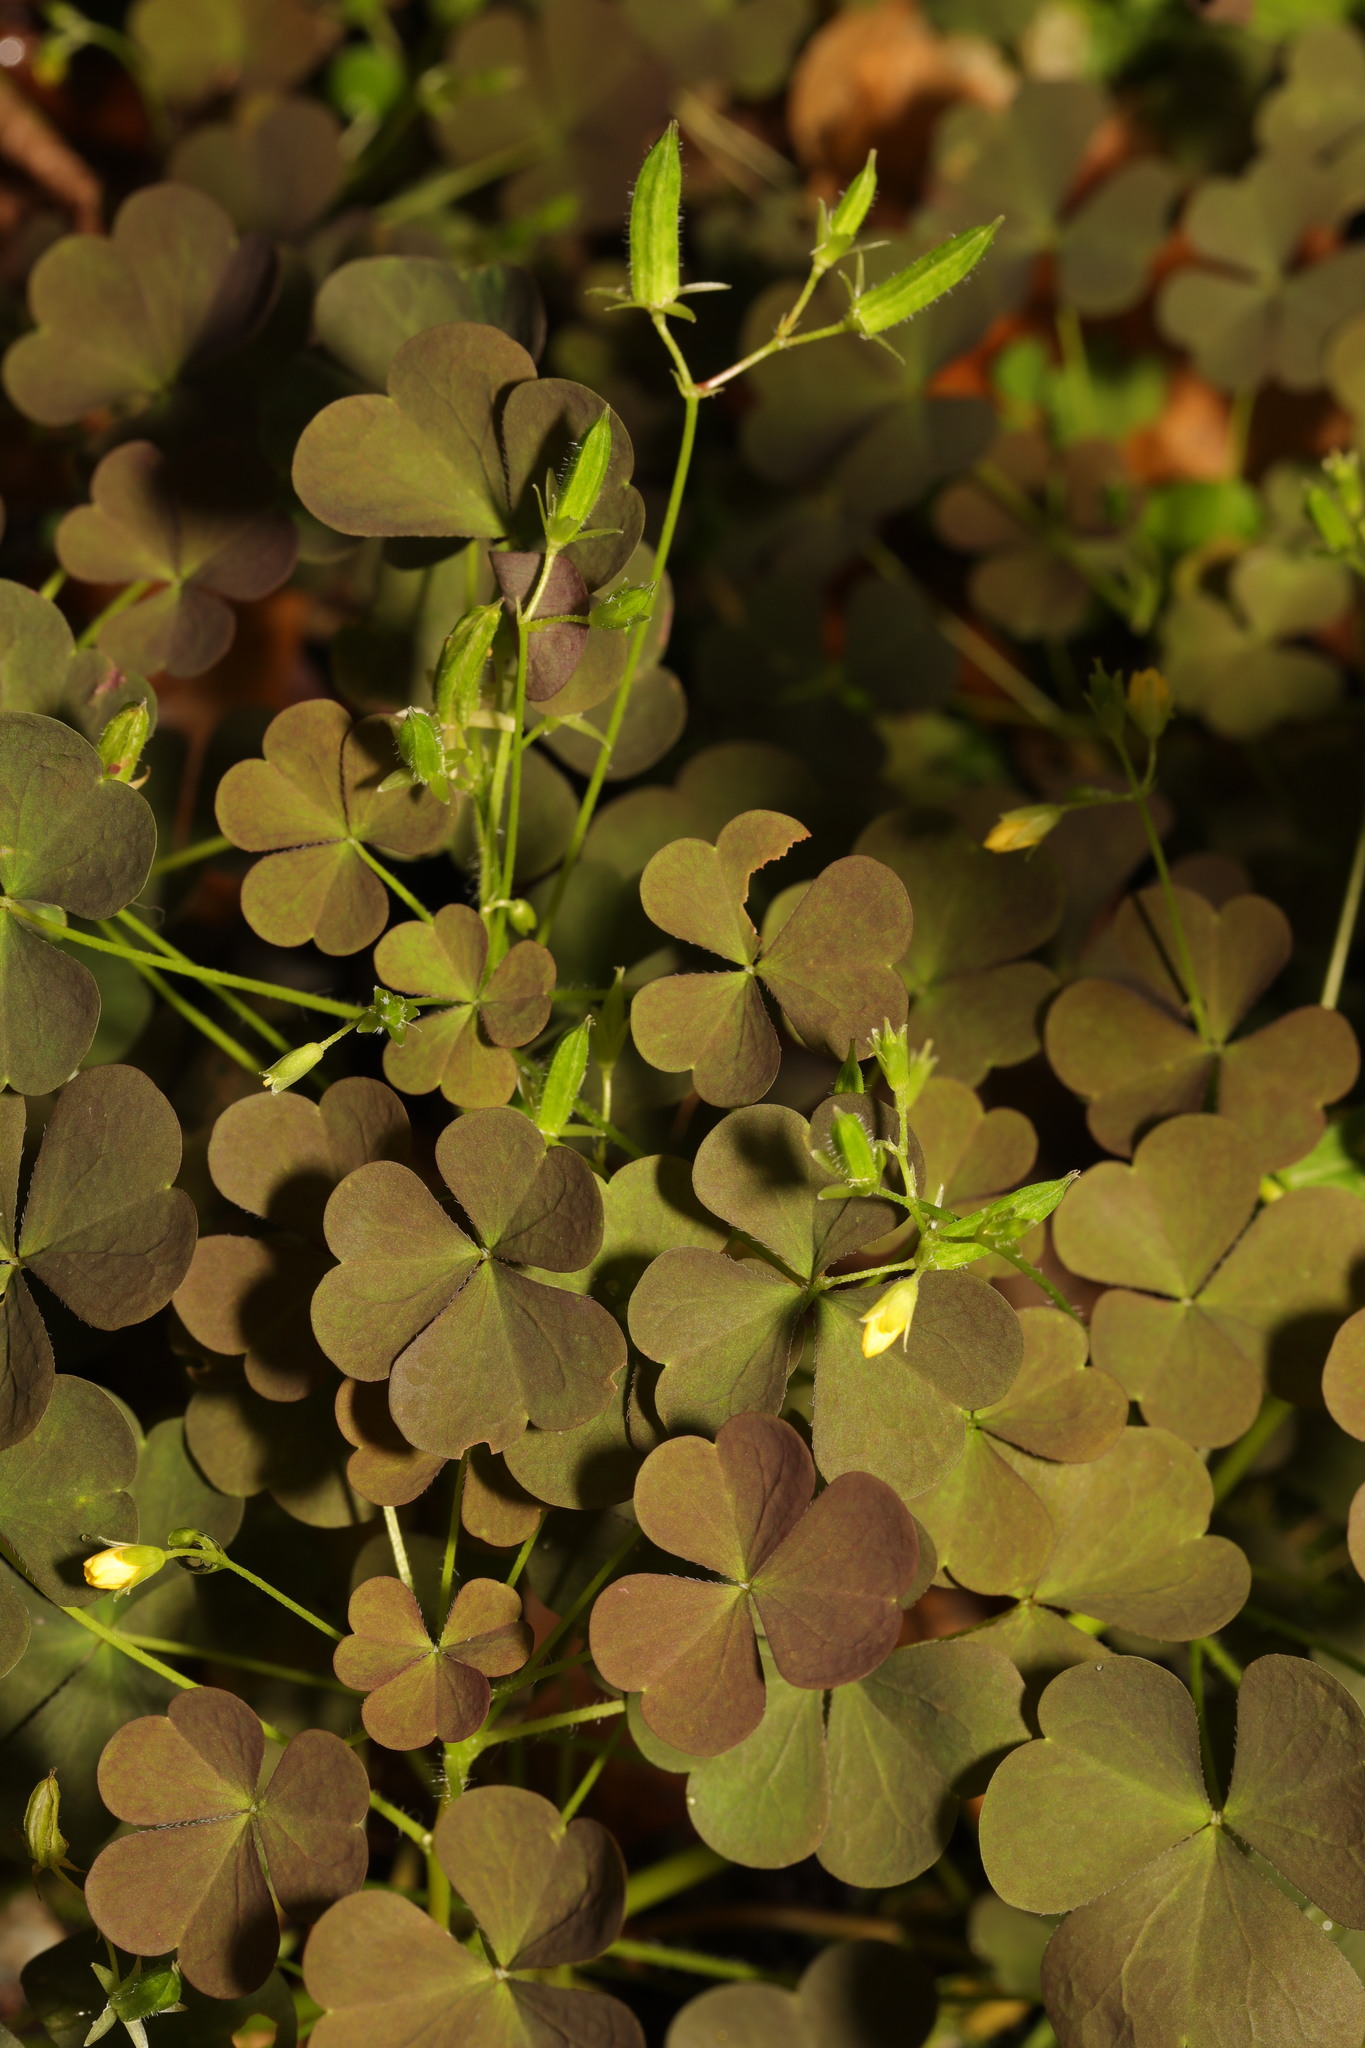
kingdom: Plantae
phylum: Tracheophyta
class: Magnoliopsida
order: Oxalidales
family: Oxalidaceae
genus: Oxalis
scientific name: Oxalis stricta
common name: Upright yellow-sorrel
